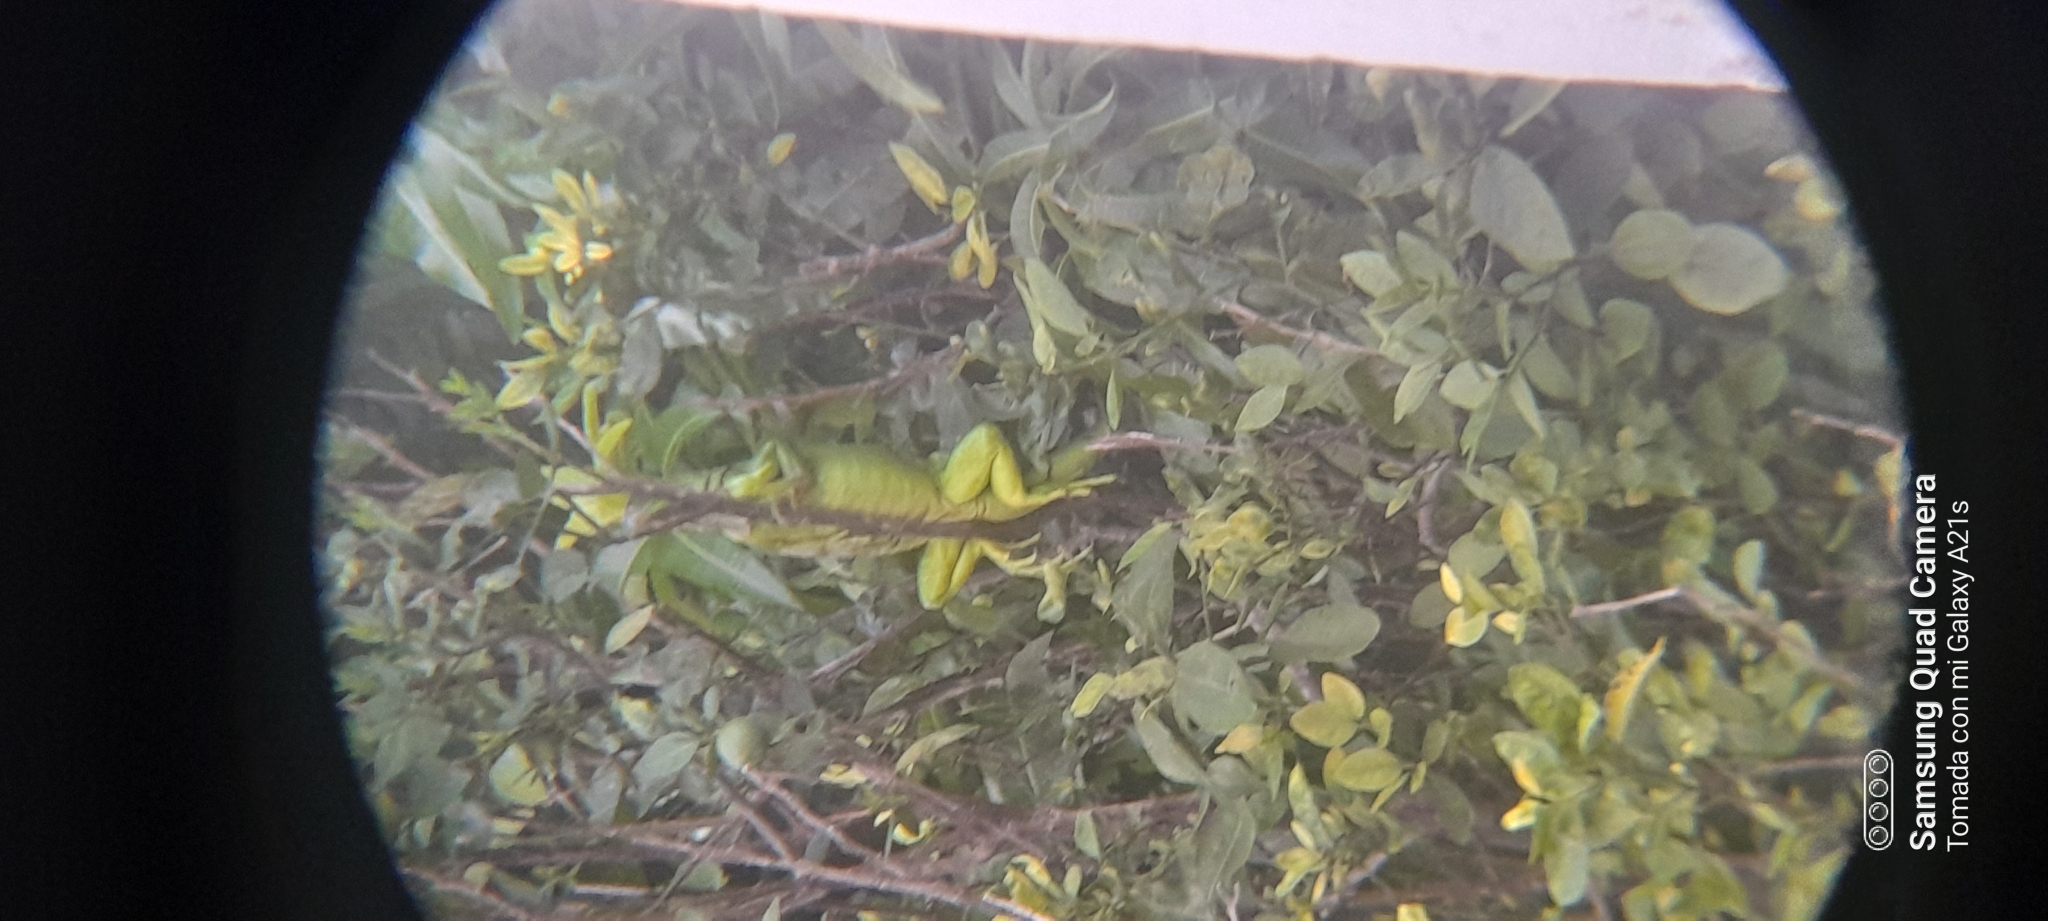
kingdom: Animalia
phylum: Chordata
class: Squamata
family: Iguanidae
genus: Iguana
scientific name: Iguana iguana
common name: Green iguana
